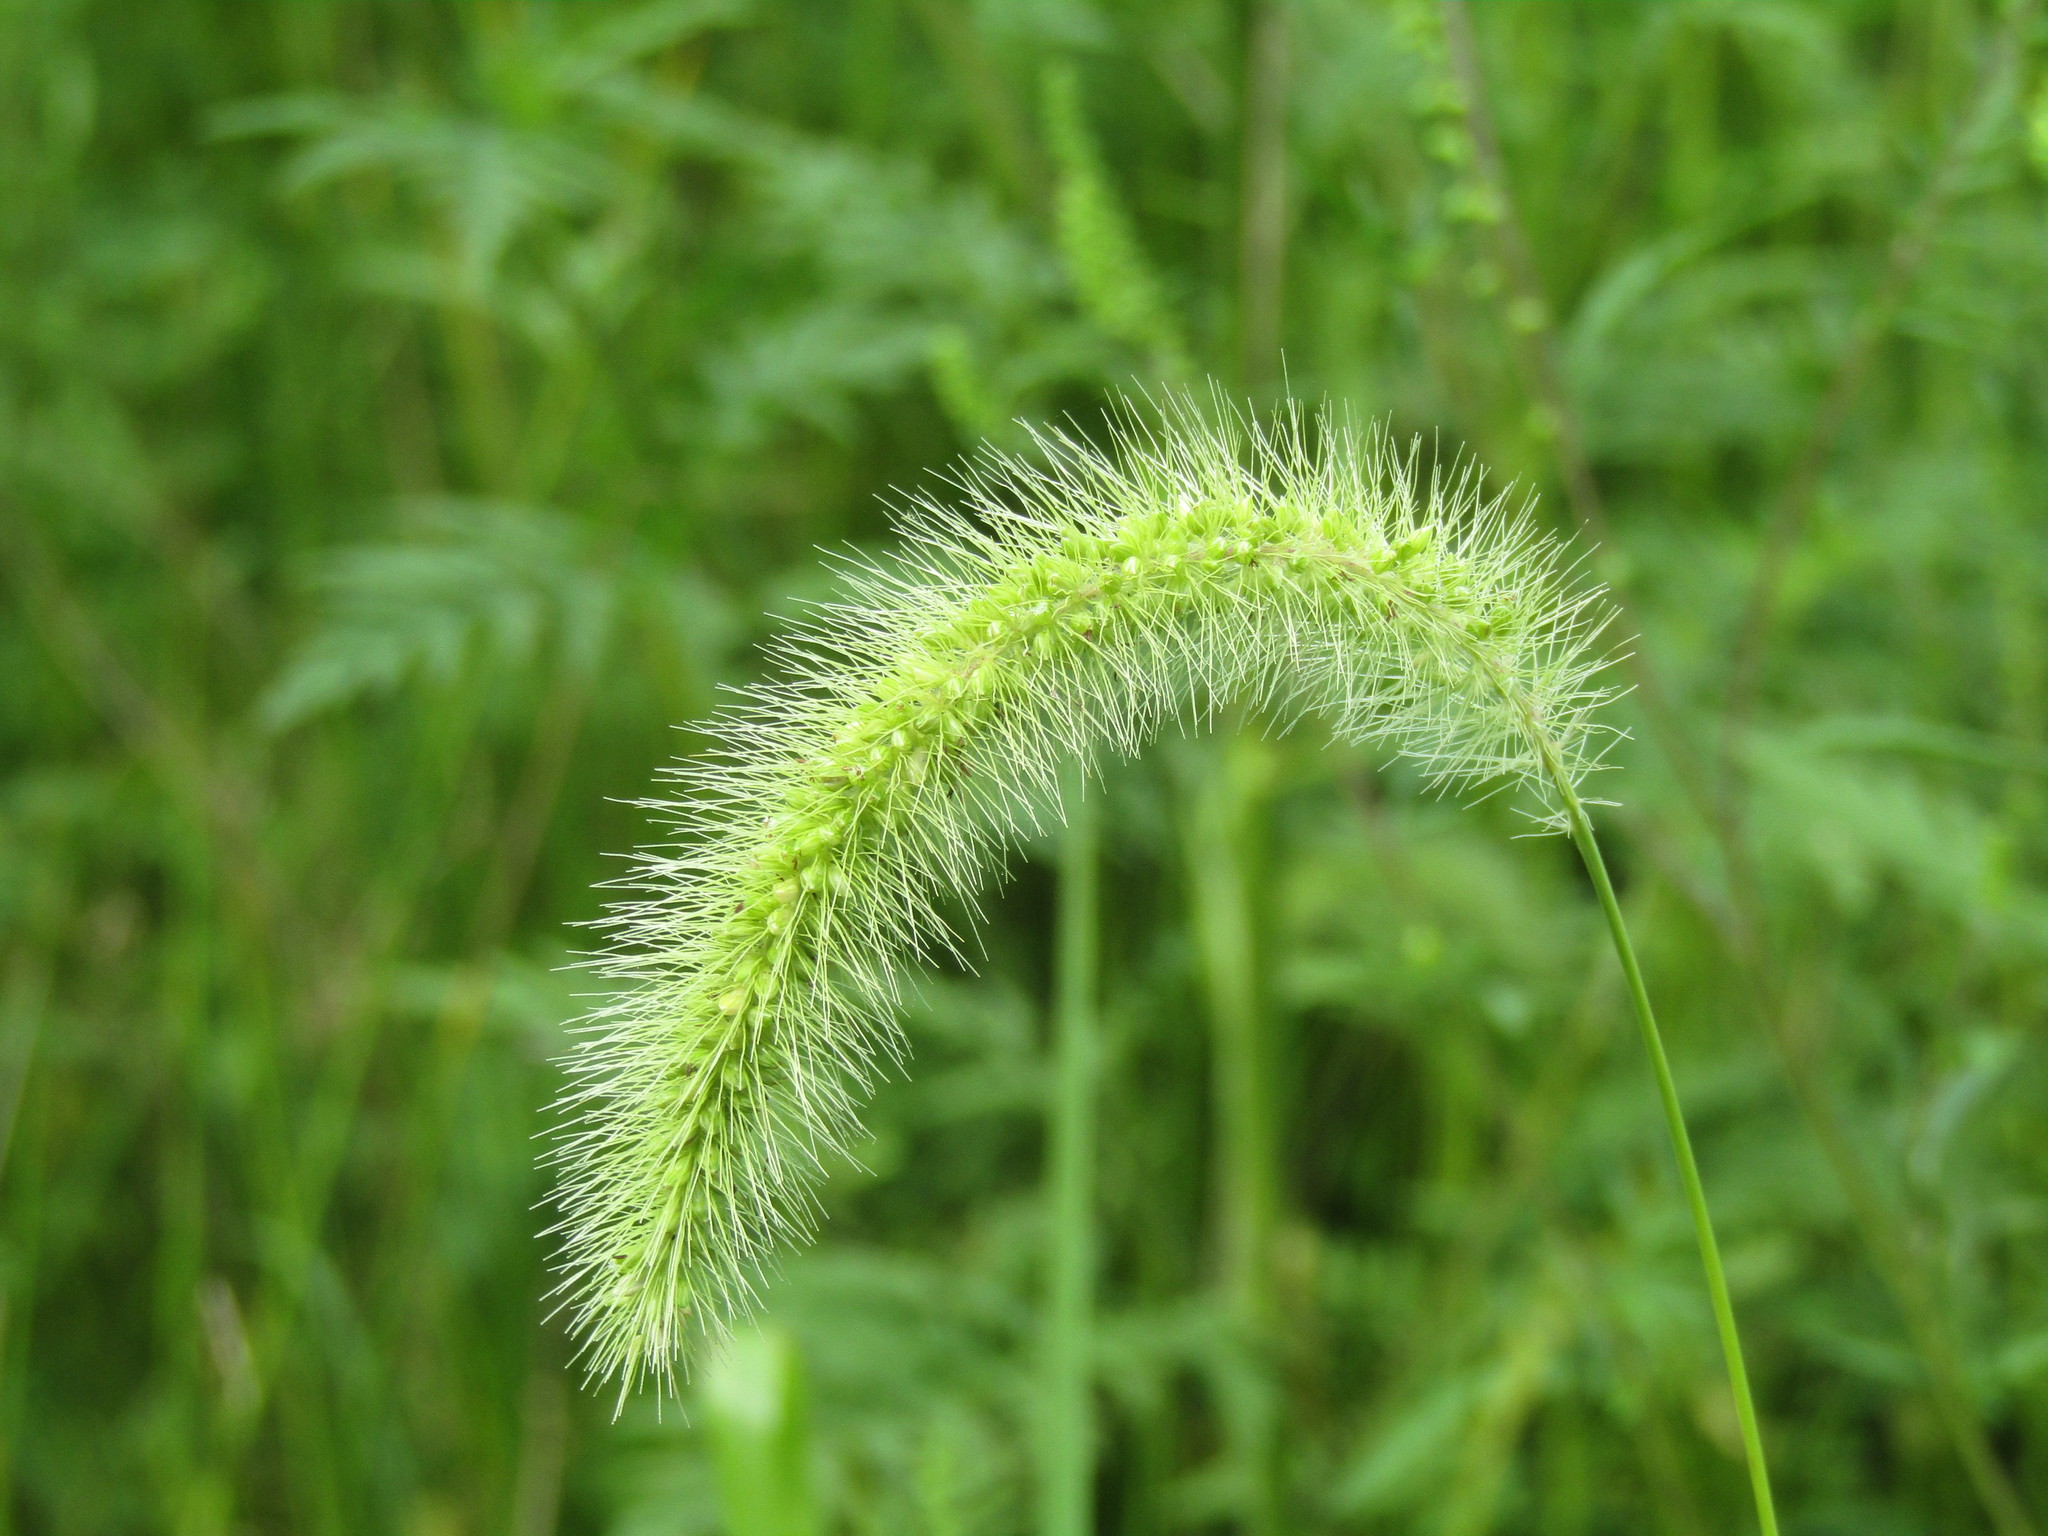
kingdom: Plantae
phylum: Tracheophyta
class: Liliopsida
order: Poales
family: Poaceae
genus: Setaria
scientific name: Setaria faberi
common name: Nodding bristle-grass
